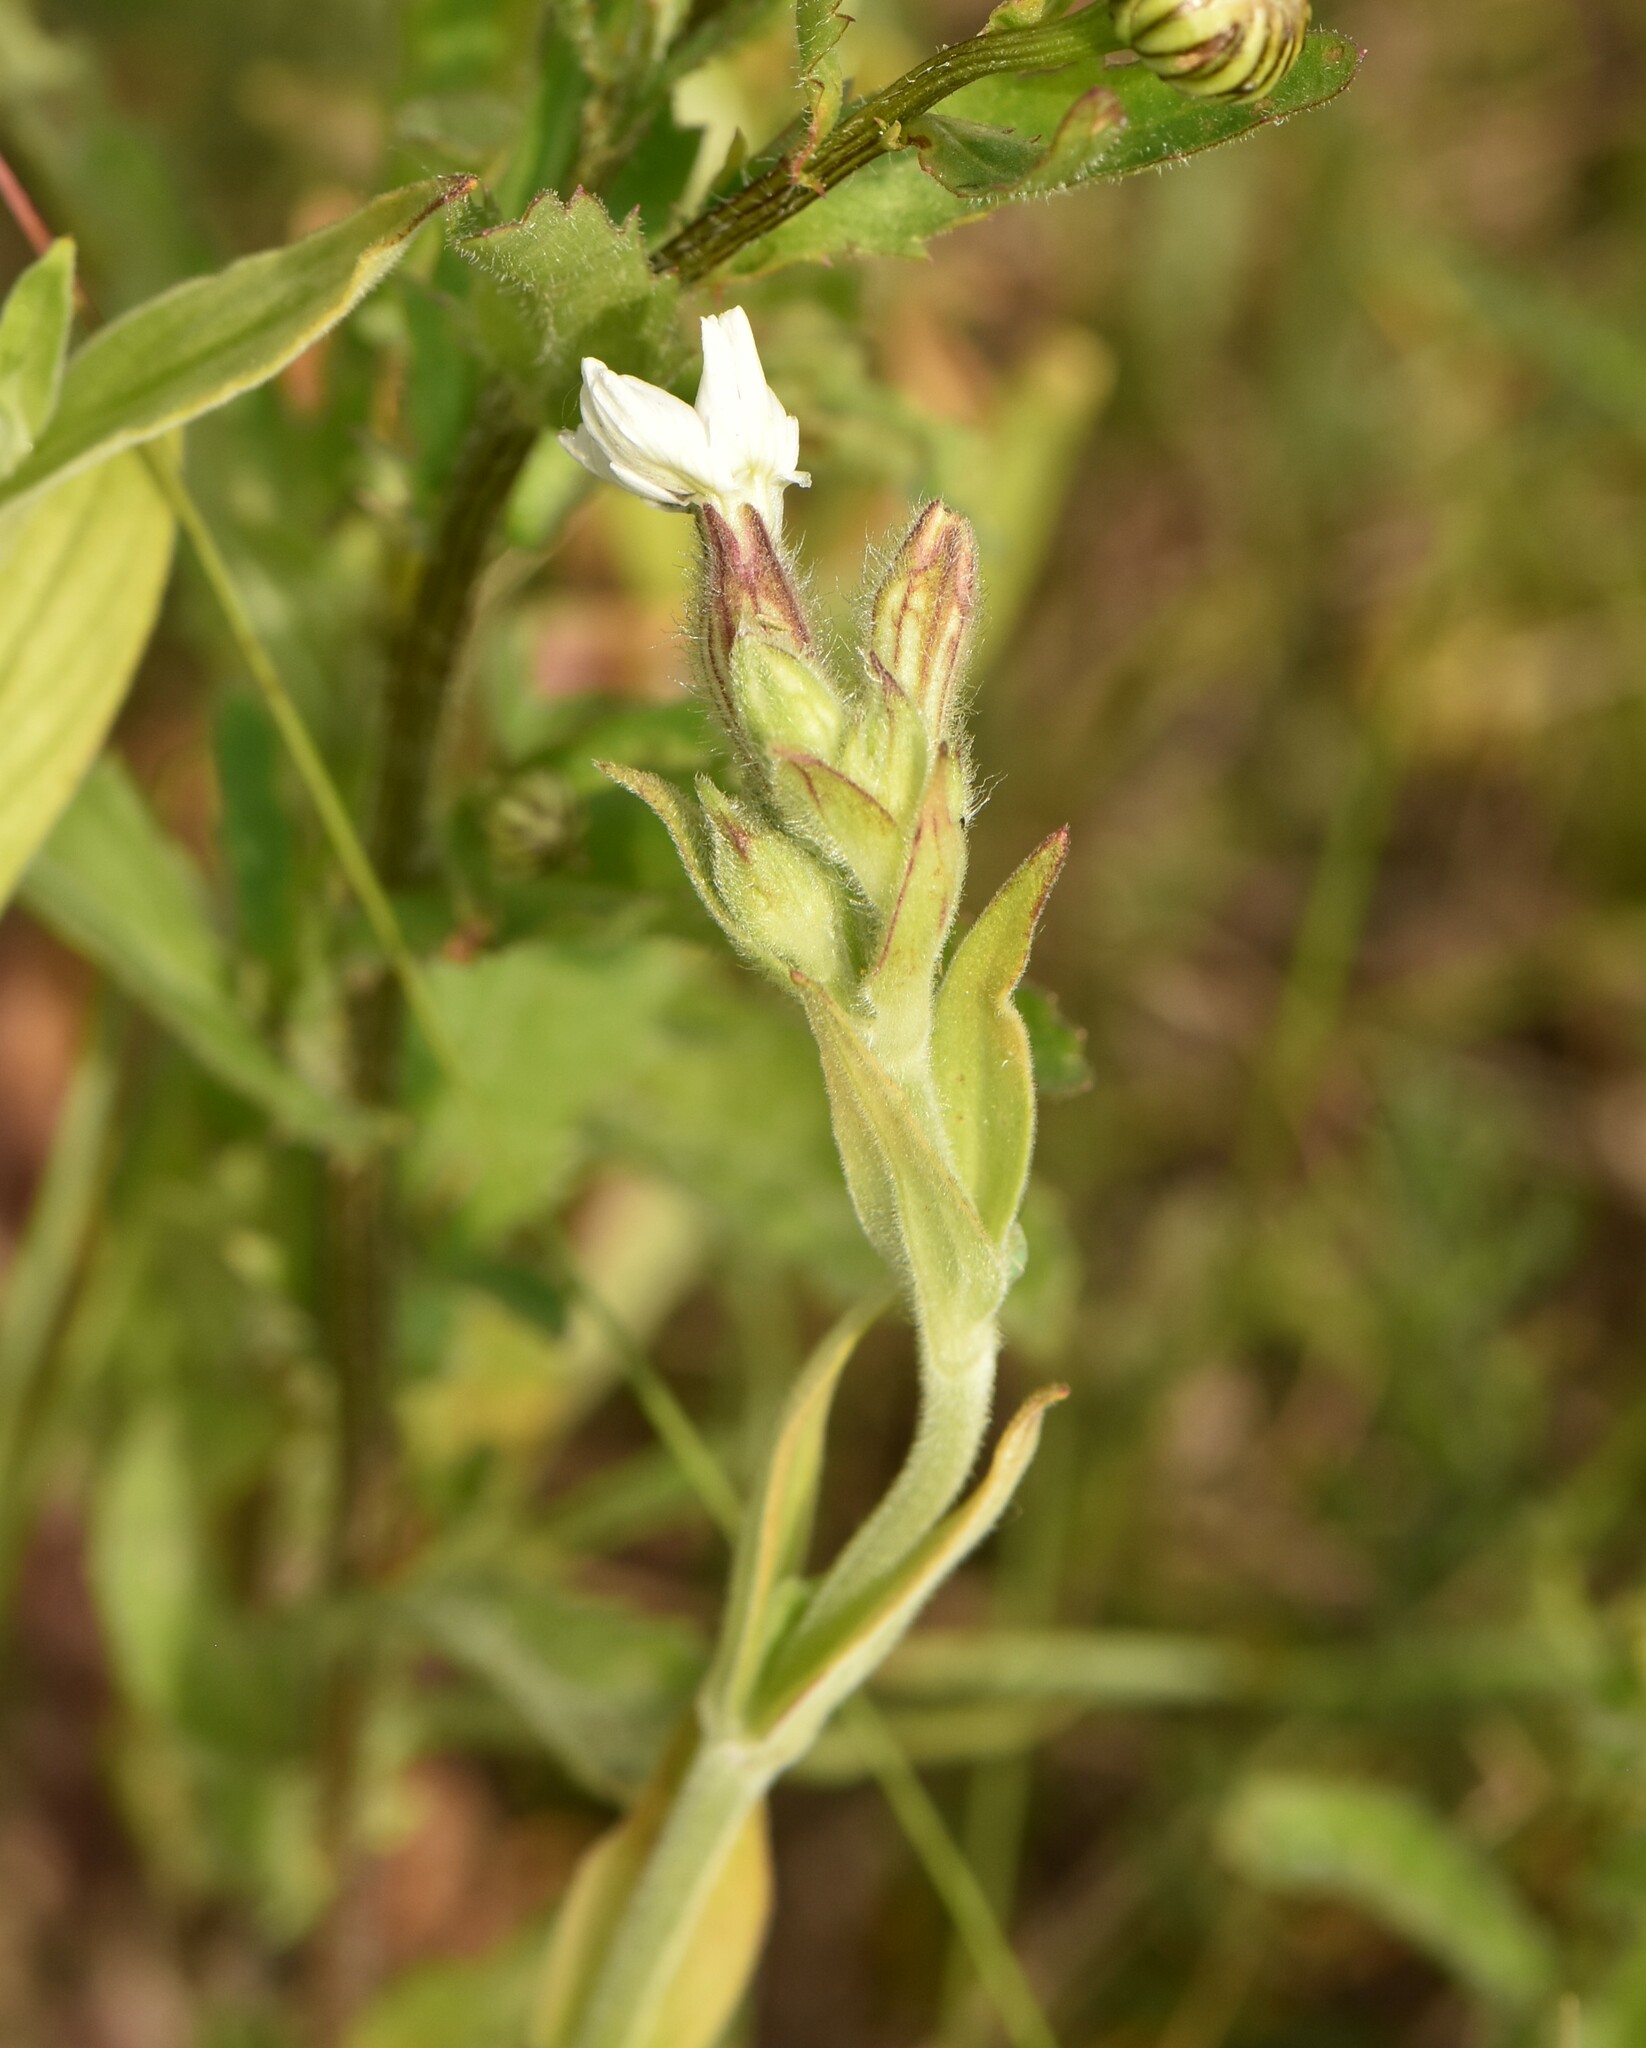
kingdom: Plantae
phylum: Tracheophyta
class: Magnoliopsida
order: Caryophyllales
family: Caryophyllaceae
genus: Silene
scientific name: Silene latifolia
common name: White campion
